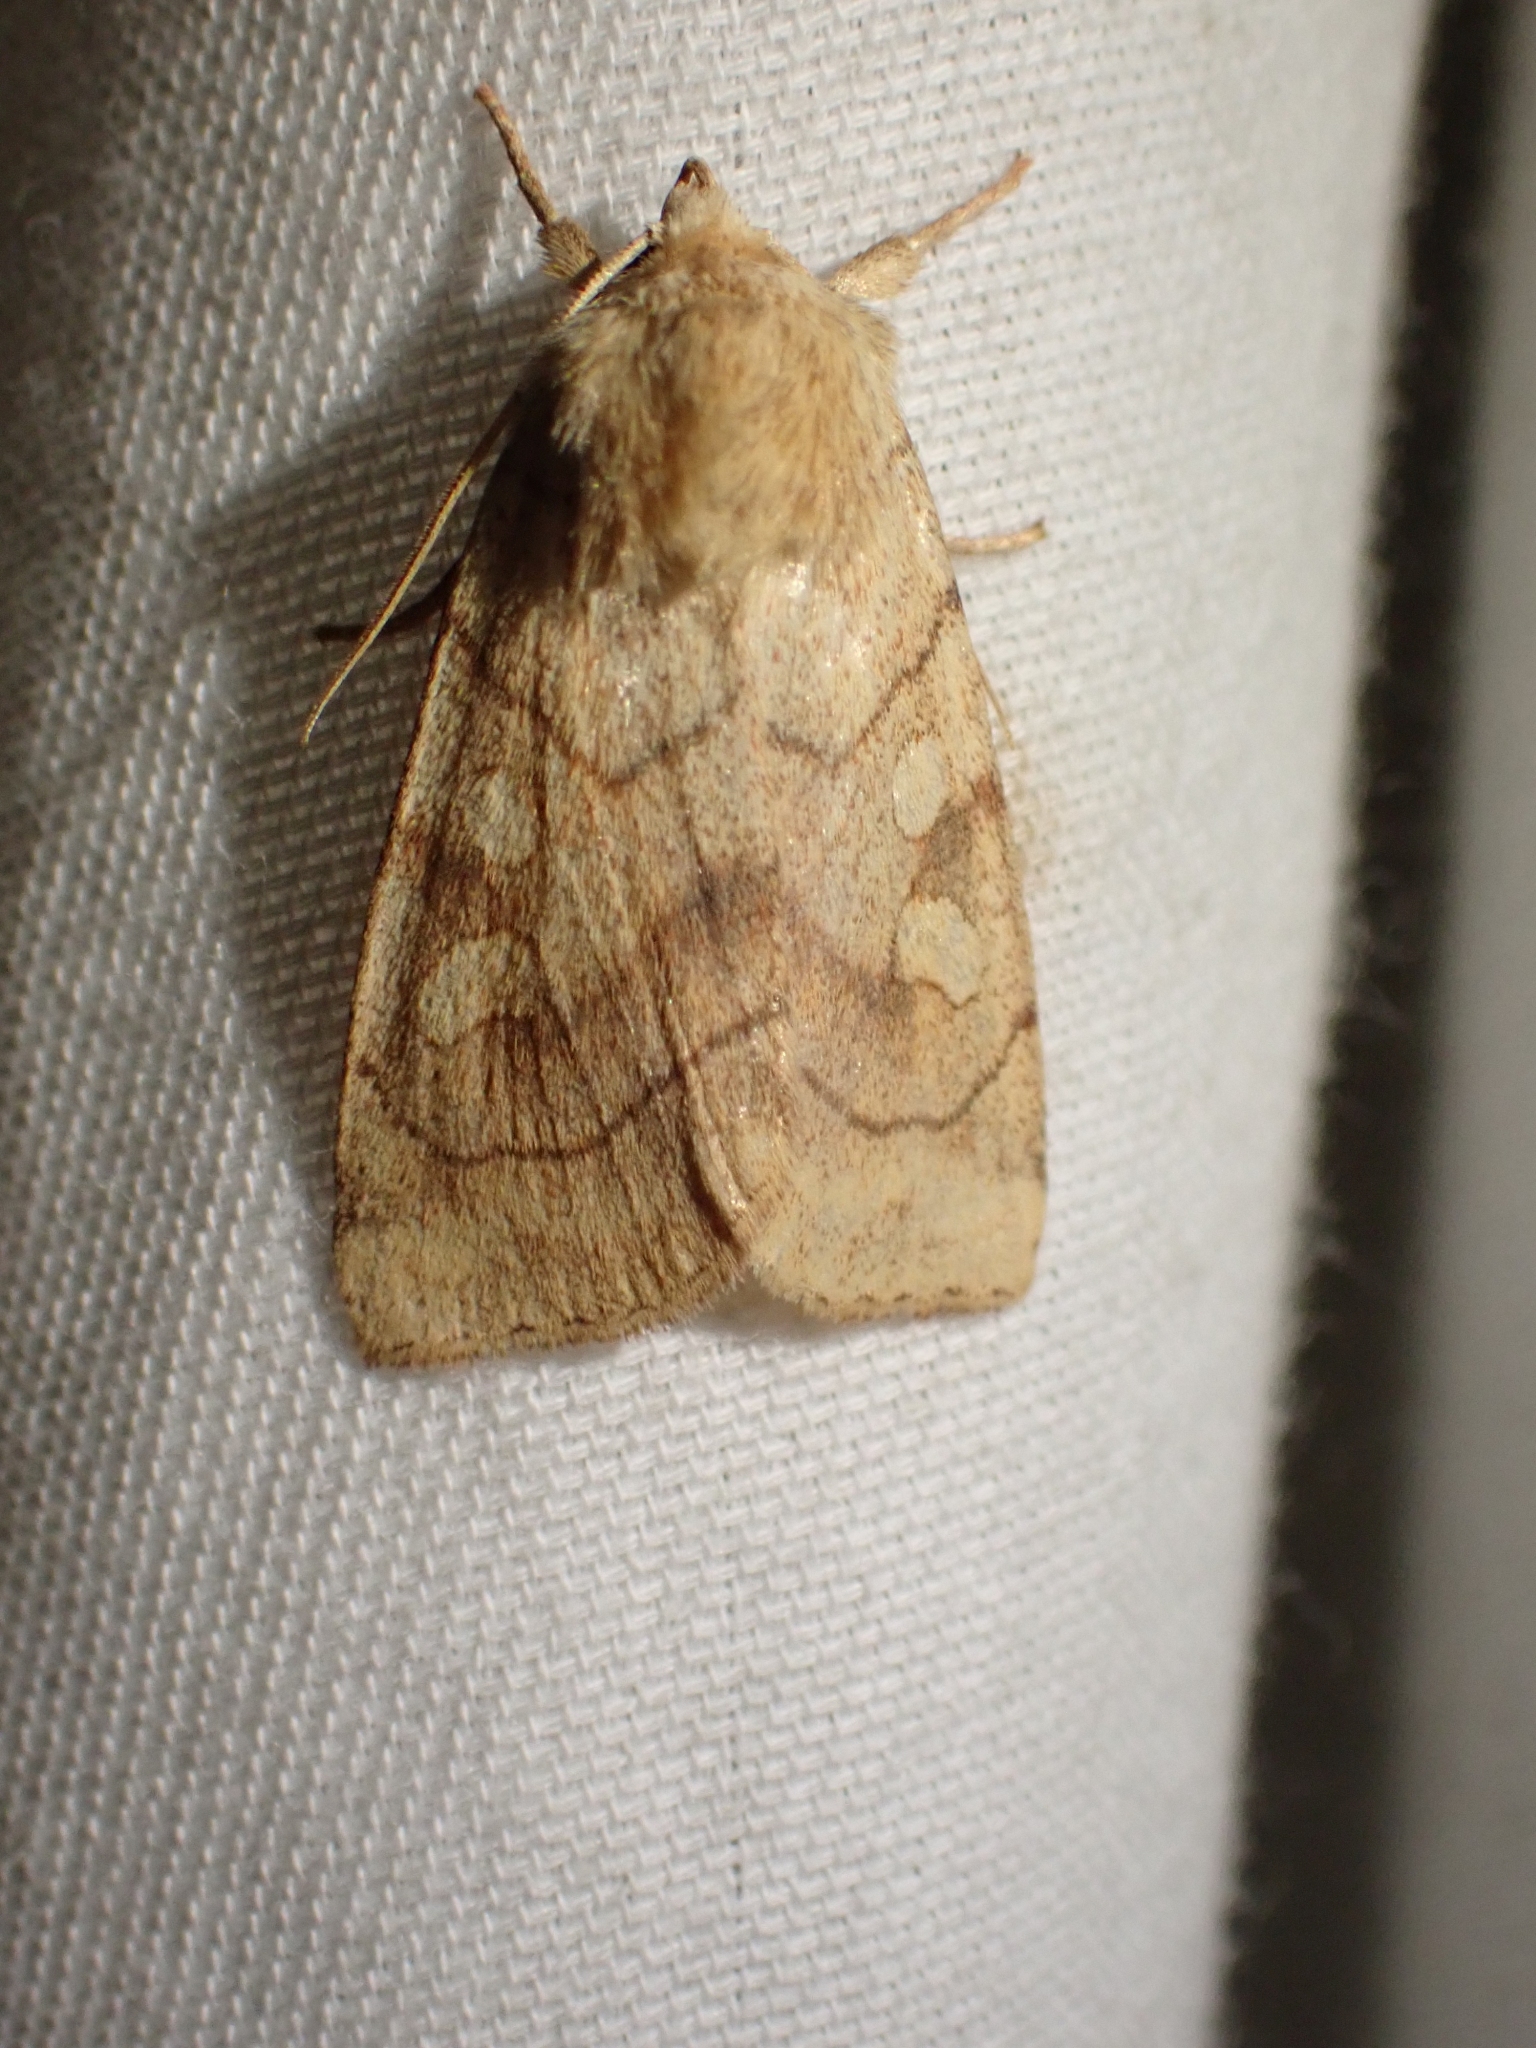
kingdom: Animalia
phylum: Arthropoda
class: Insecta
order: Lepidoptera
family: Noctuidae
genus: Enargia
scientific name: Enargia decolor
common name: Aspen twoleaf tier moth
